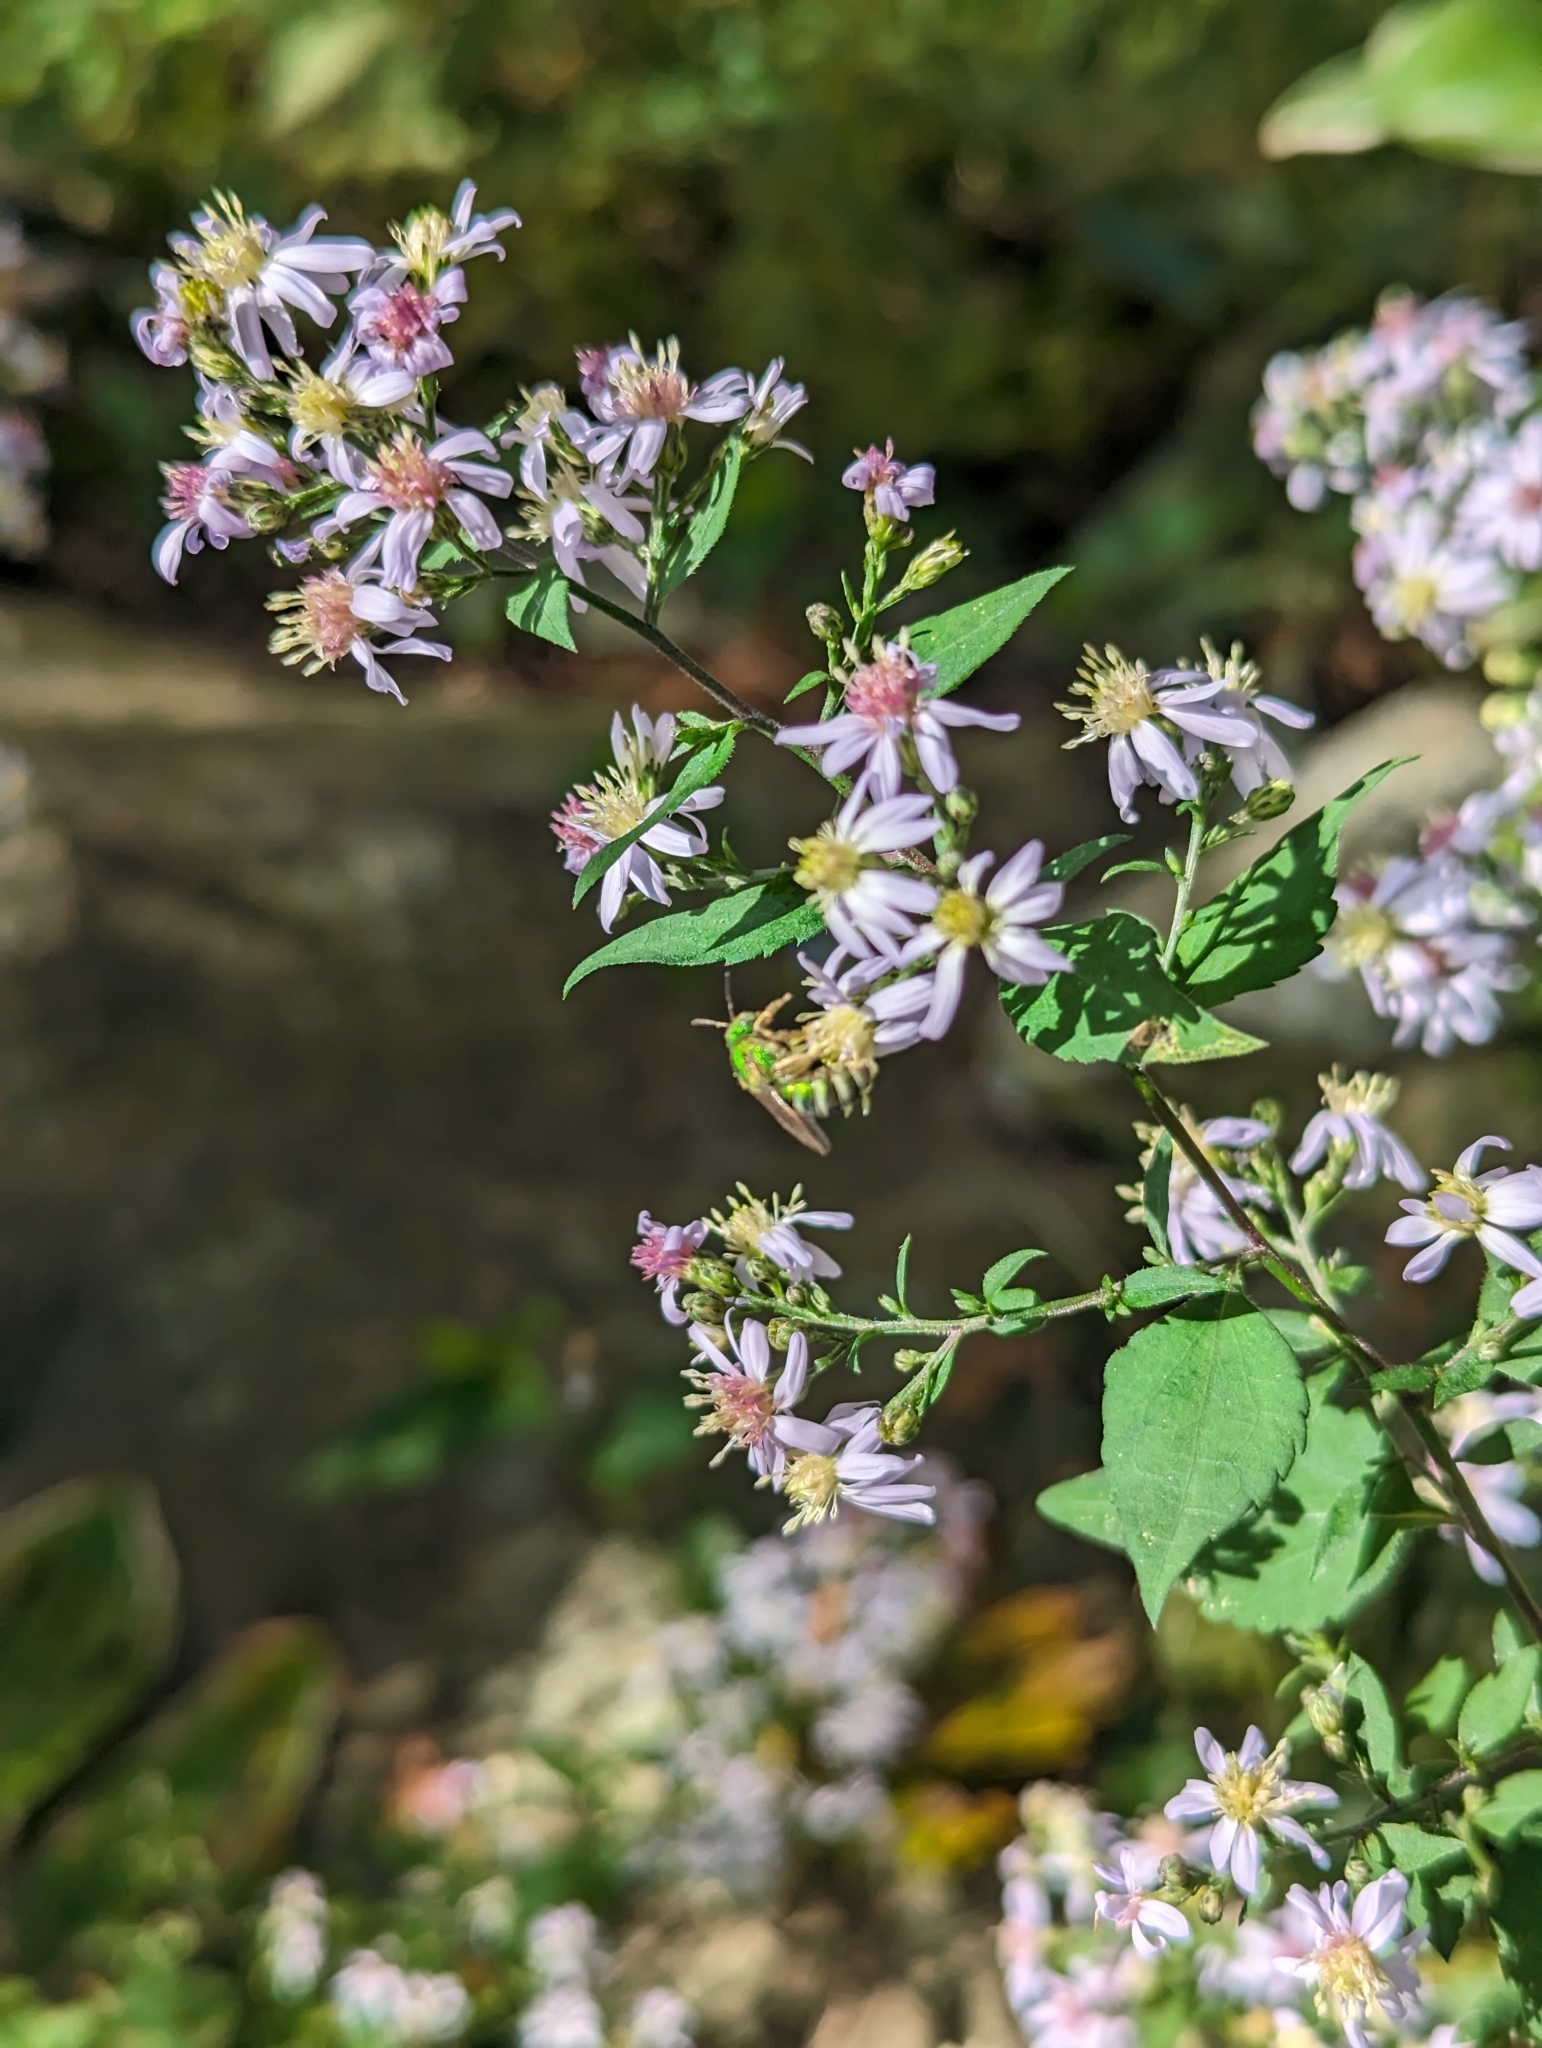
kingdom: Plantae
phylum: Tracheophyta
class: Magnoliopsida
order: Asterales
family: Asteraceae
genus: Symphyotrichum
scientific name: Symphyotrichum cordifolium
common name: Beeweed
